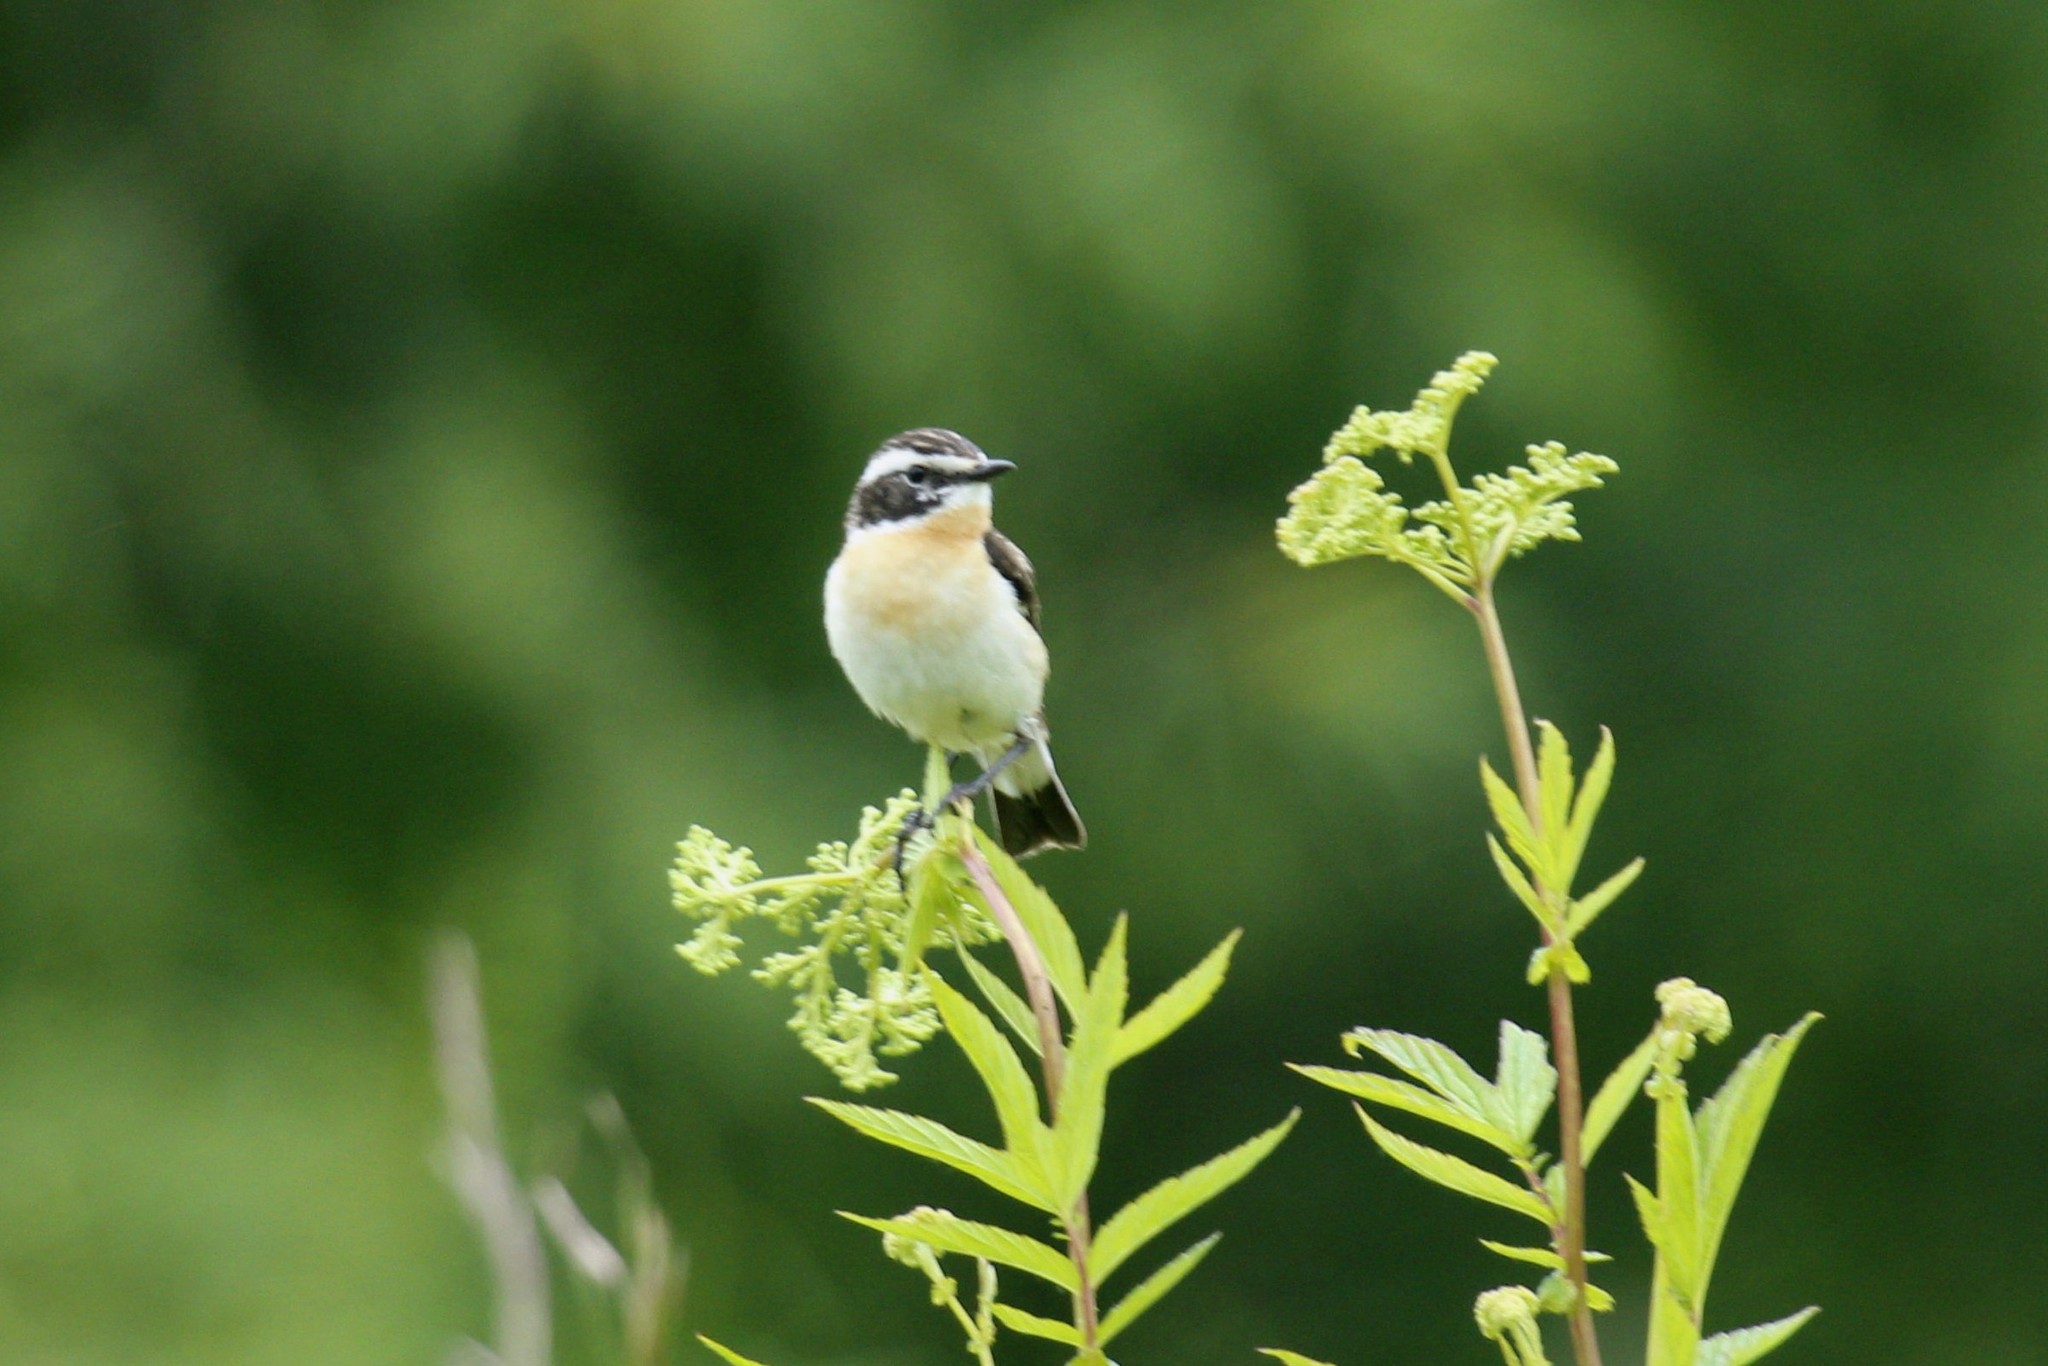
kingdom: Animalia
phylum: Chordata
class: Aves
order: Passeriformes
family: Muscicapidae
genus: Saxicola
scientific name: Saxicola rubetra
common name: Whinchat
